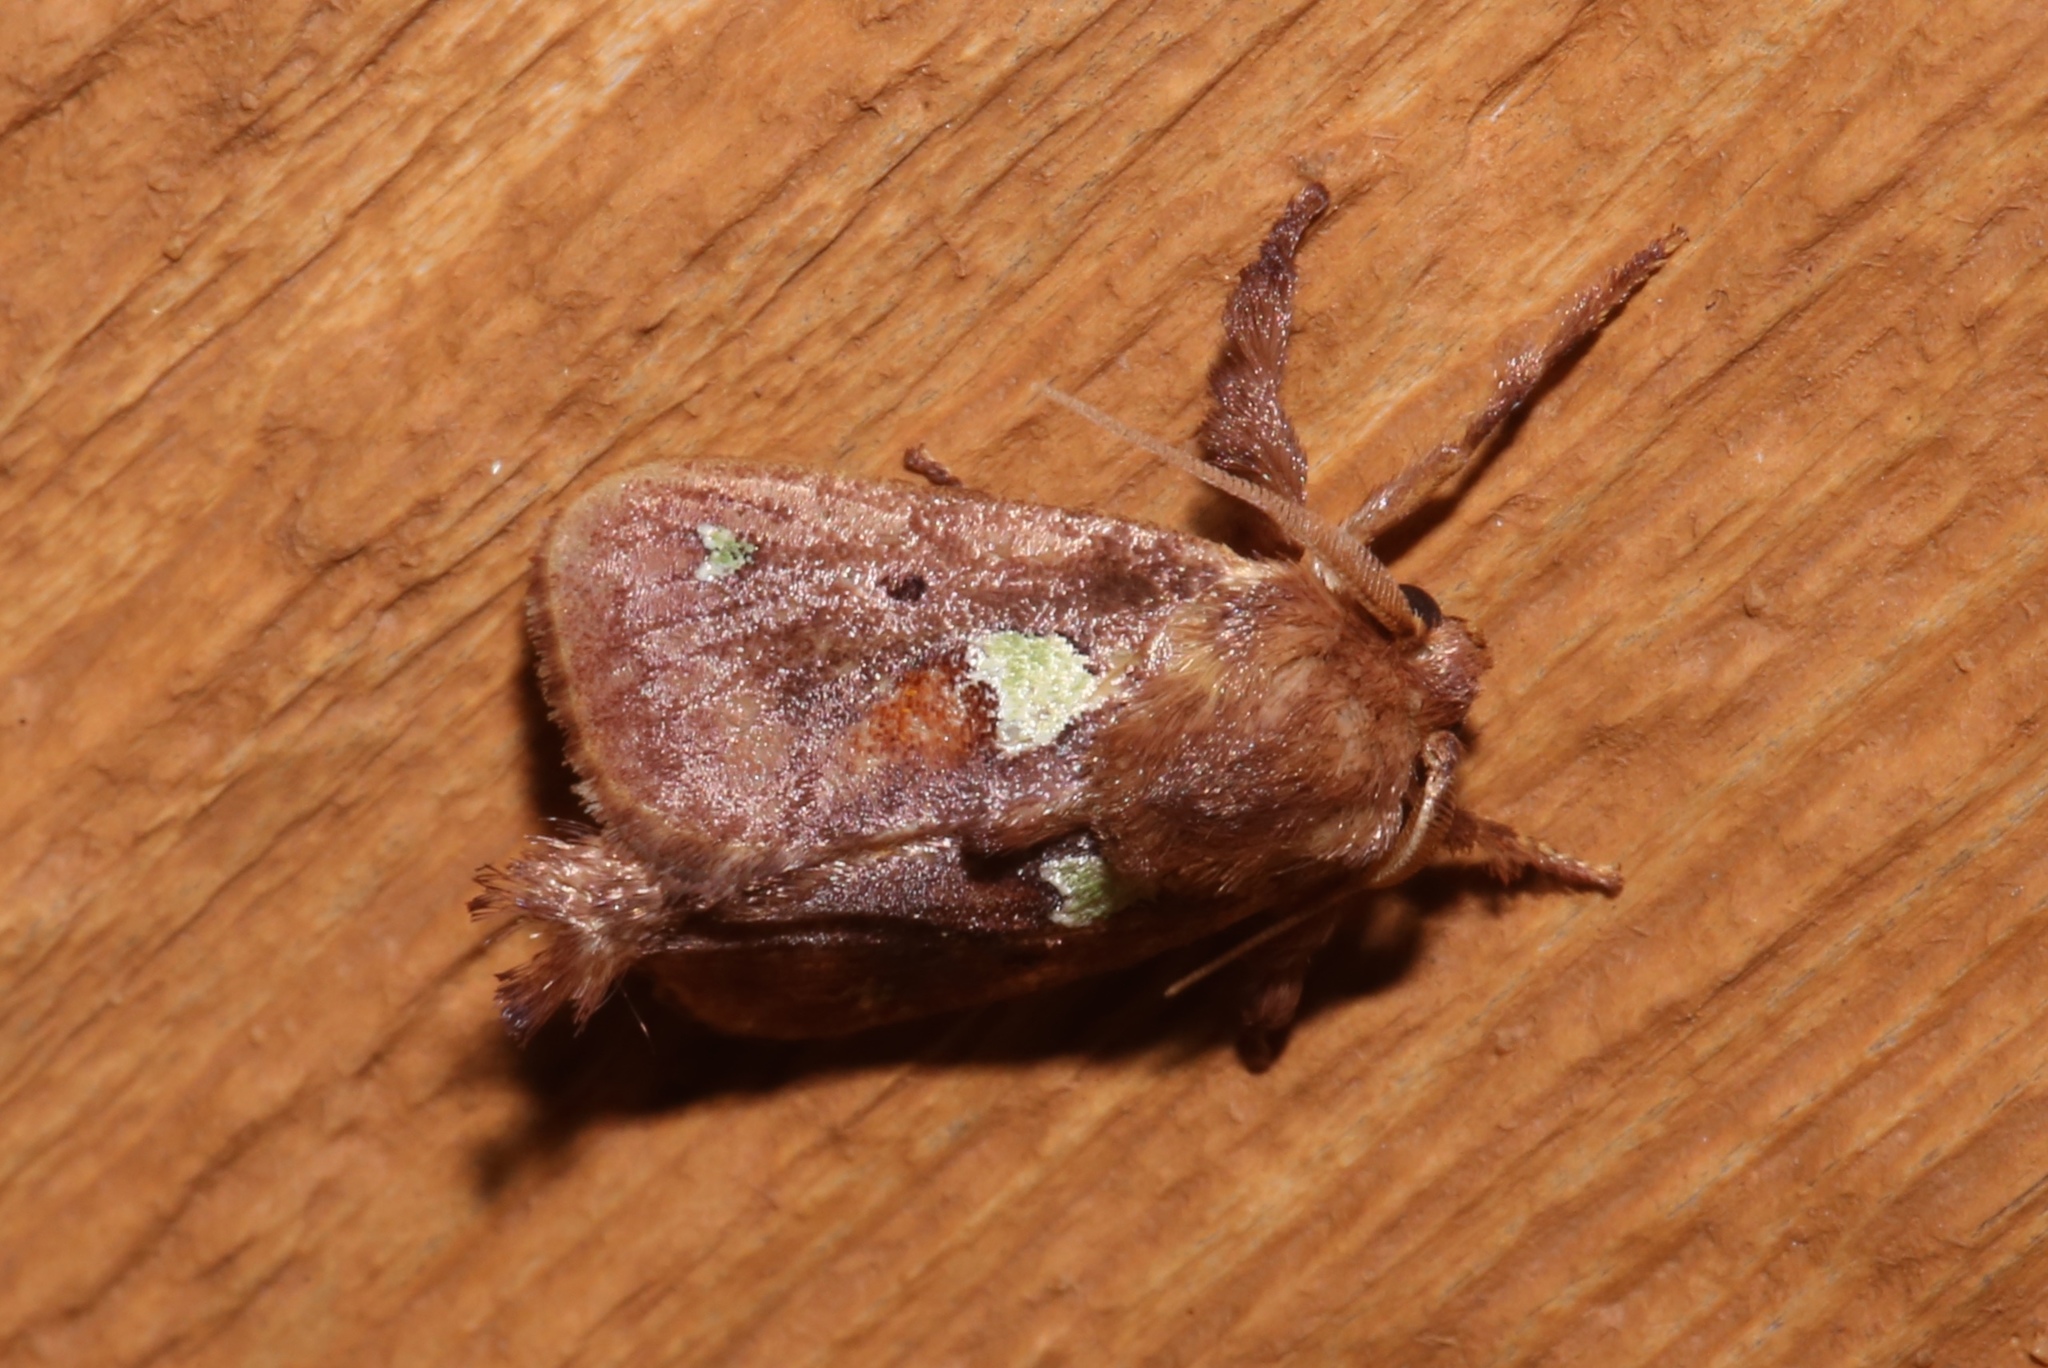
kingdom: Animalia
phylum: Arthropoda
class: Insecta
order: Lepidoptera
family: Limacodidae
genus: Euclea
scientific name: Euclea delphinii
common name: Spiny oak-slug moth
